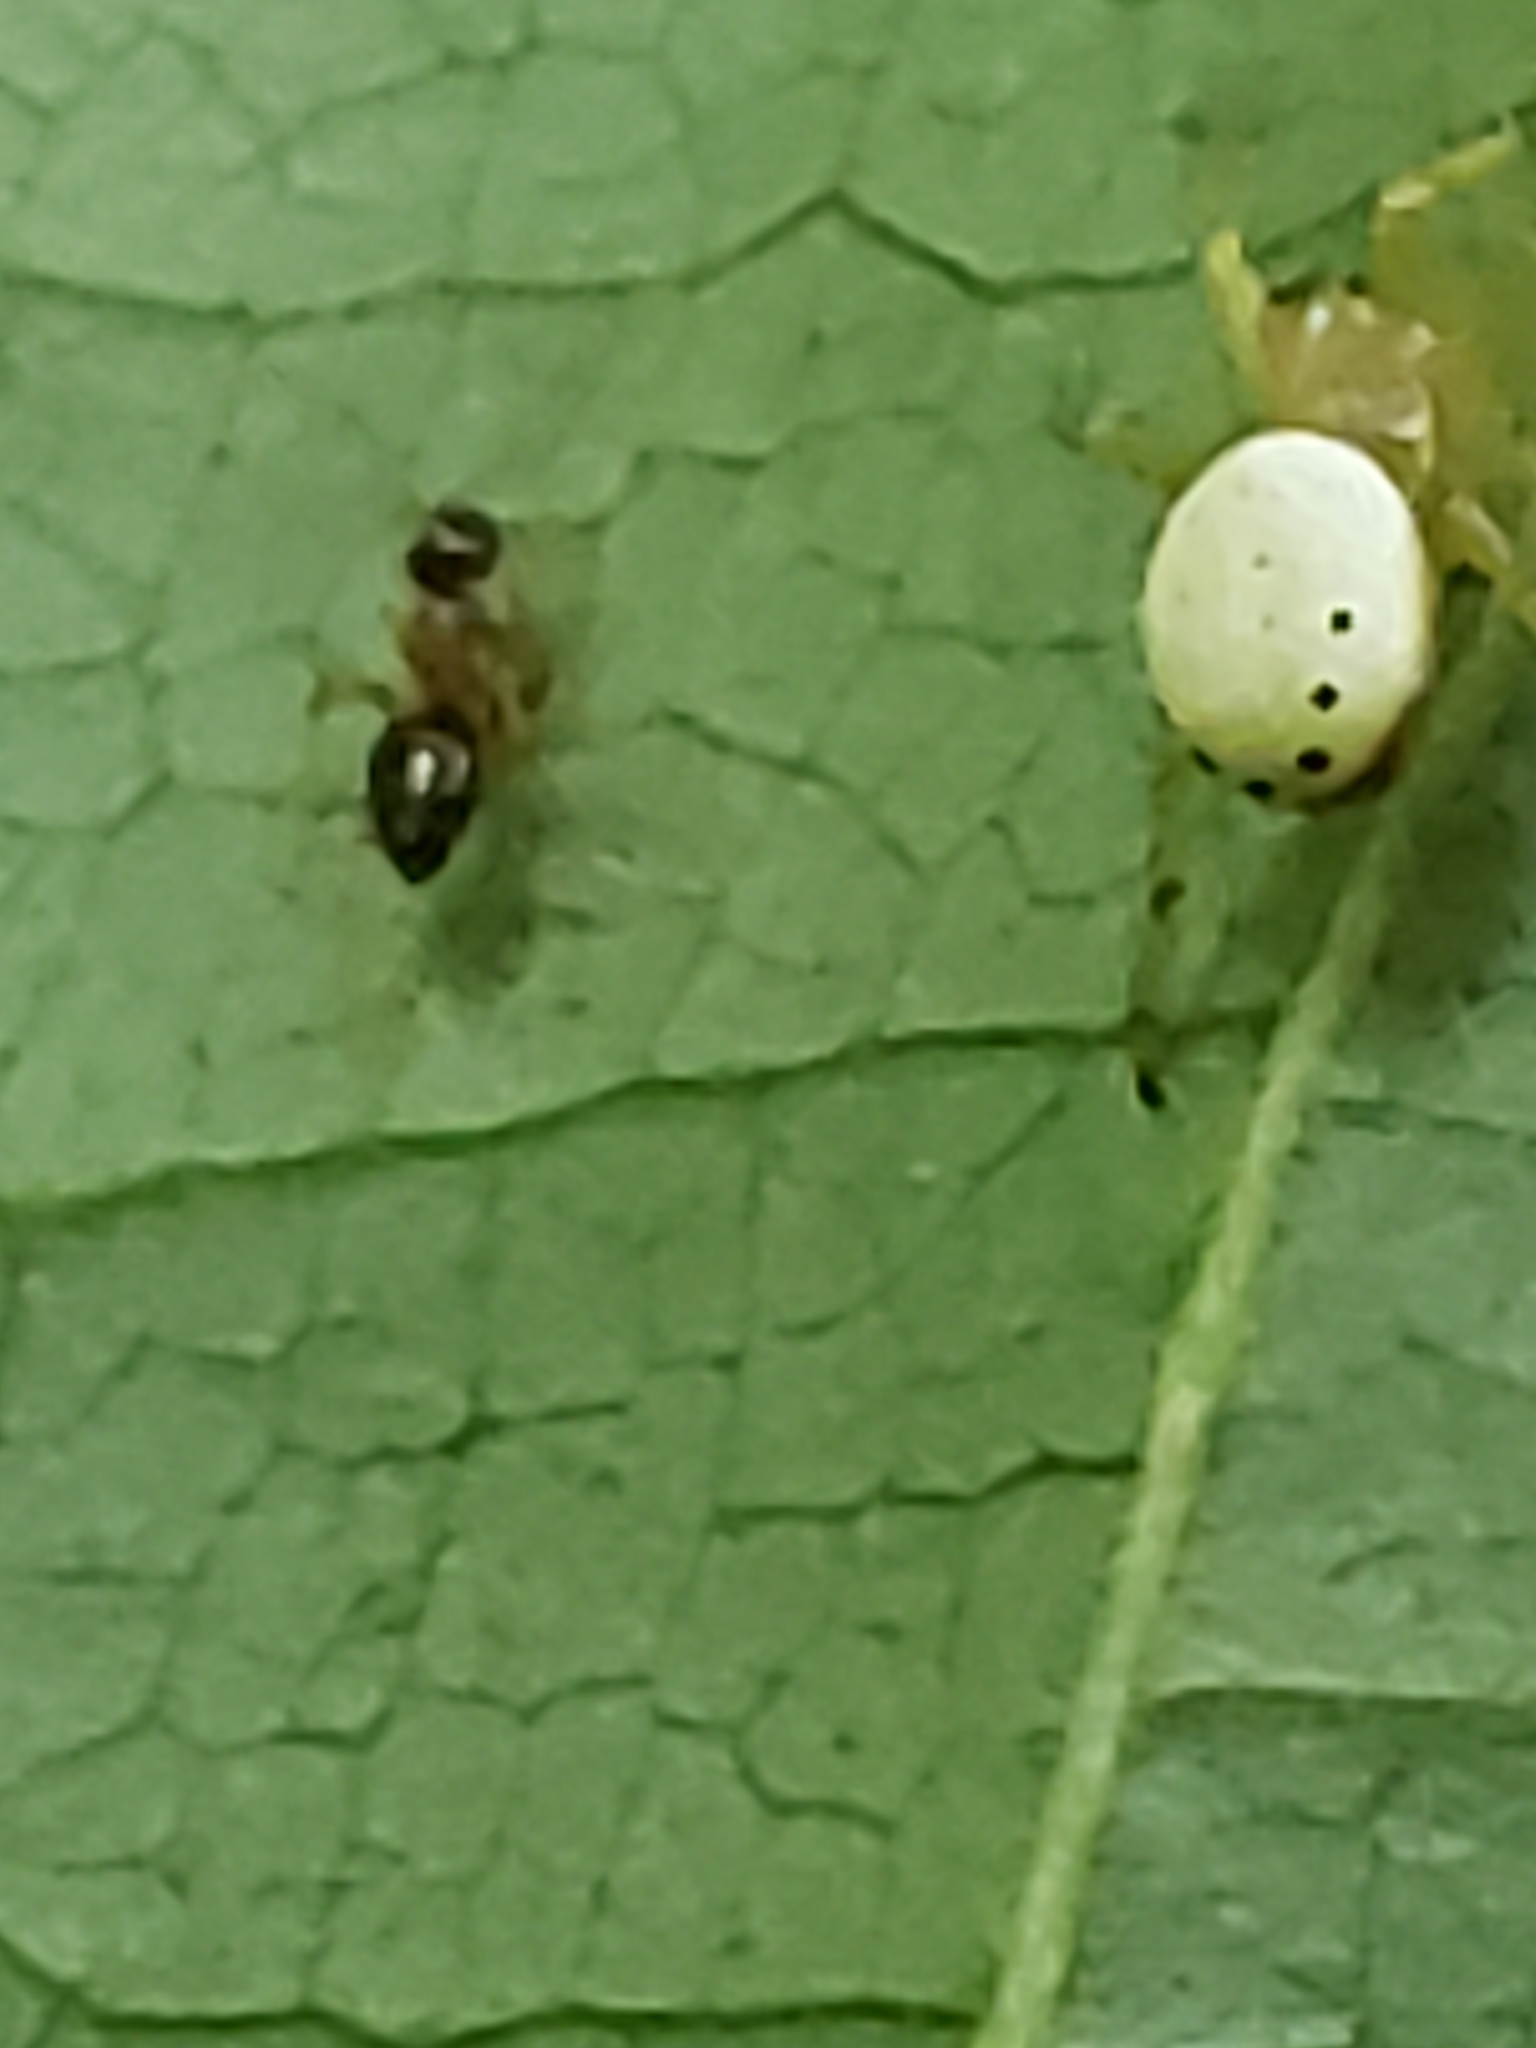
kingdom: Animalia
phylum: Arthropoda
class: Arachnida
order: Araneae
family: Araneidae
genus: Araniella
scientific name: Araniella displicata
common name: Sixspotted orb weaver
